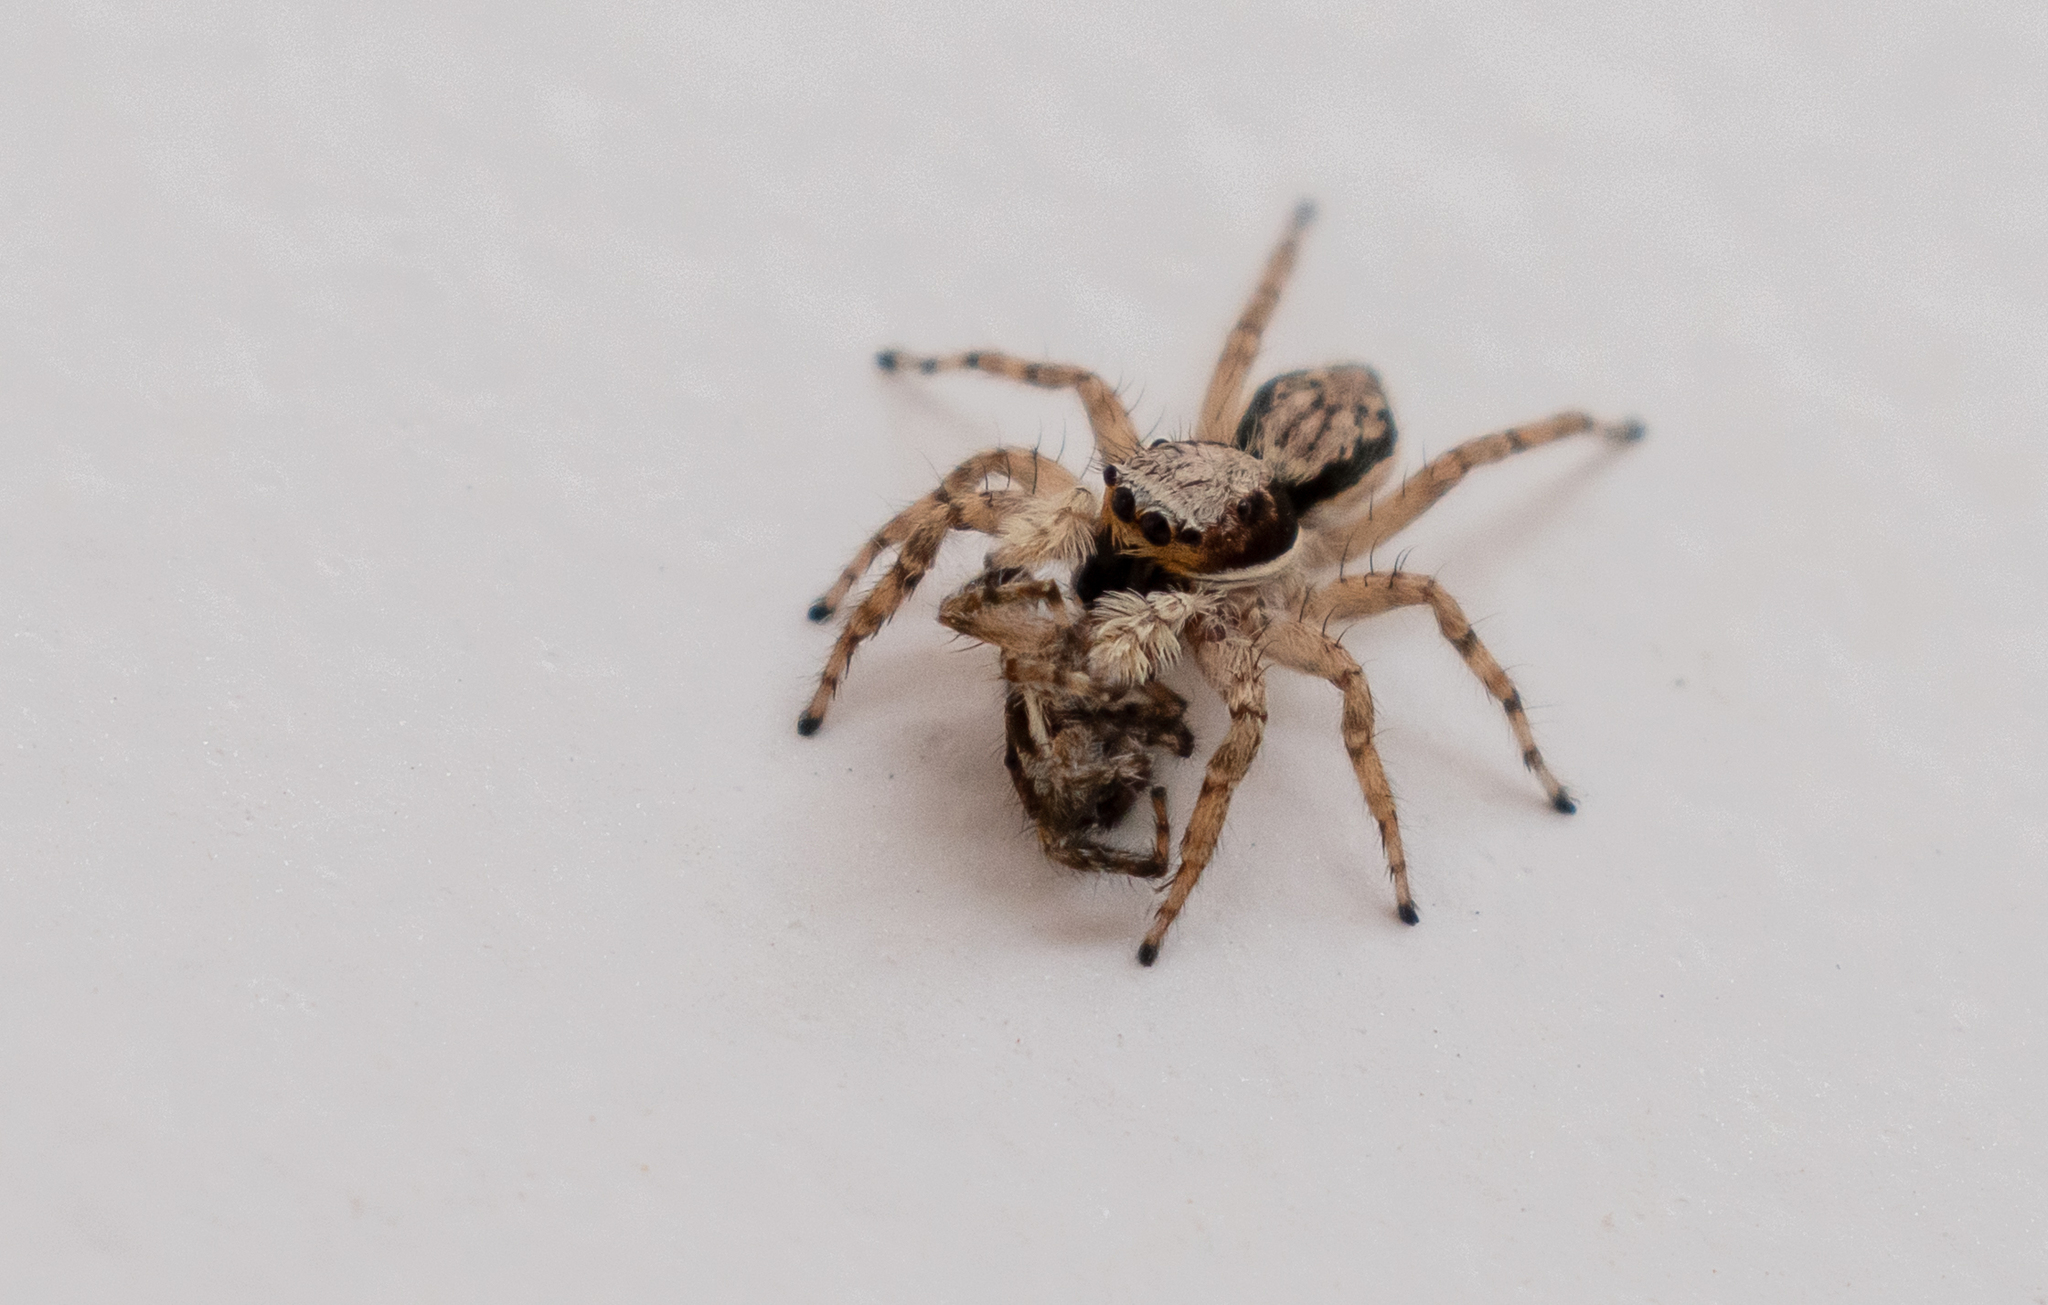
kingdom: Animalia
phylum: Arthropoda
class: Arachnida
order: Araneae
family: Salticidae
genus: Menemerus
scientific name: Menemerus bivittatus
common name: Gray wall jumper
